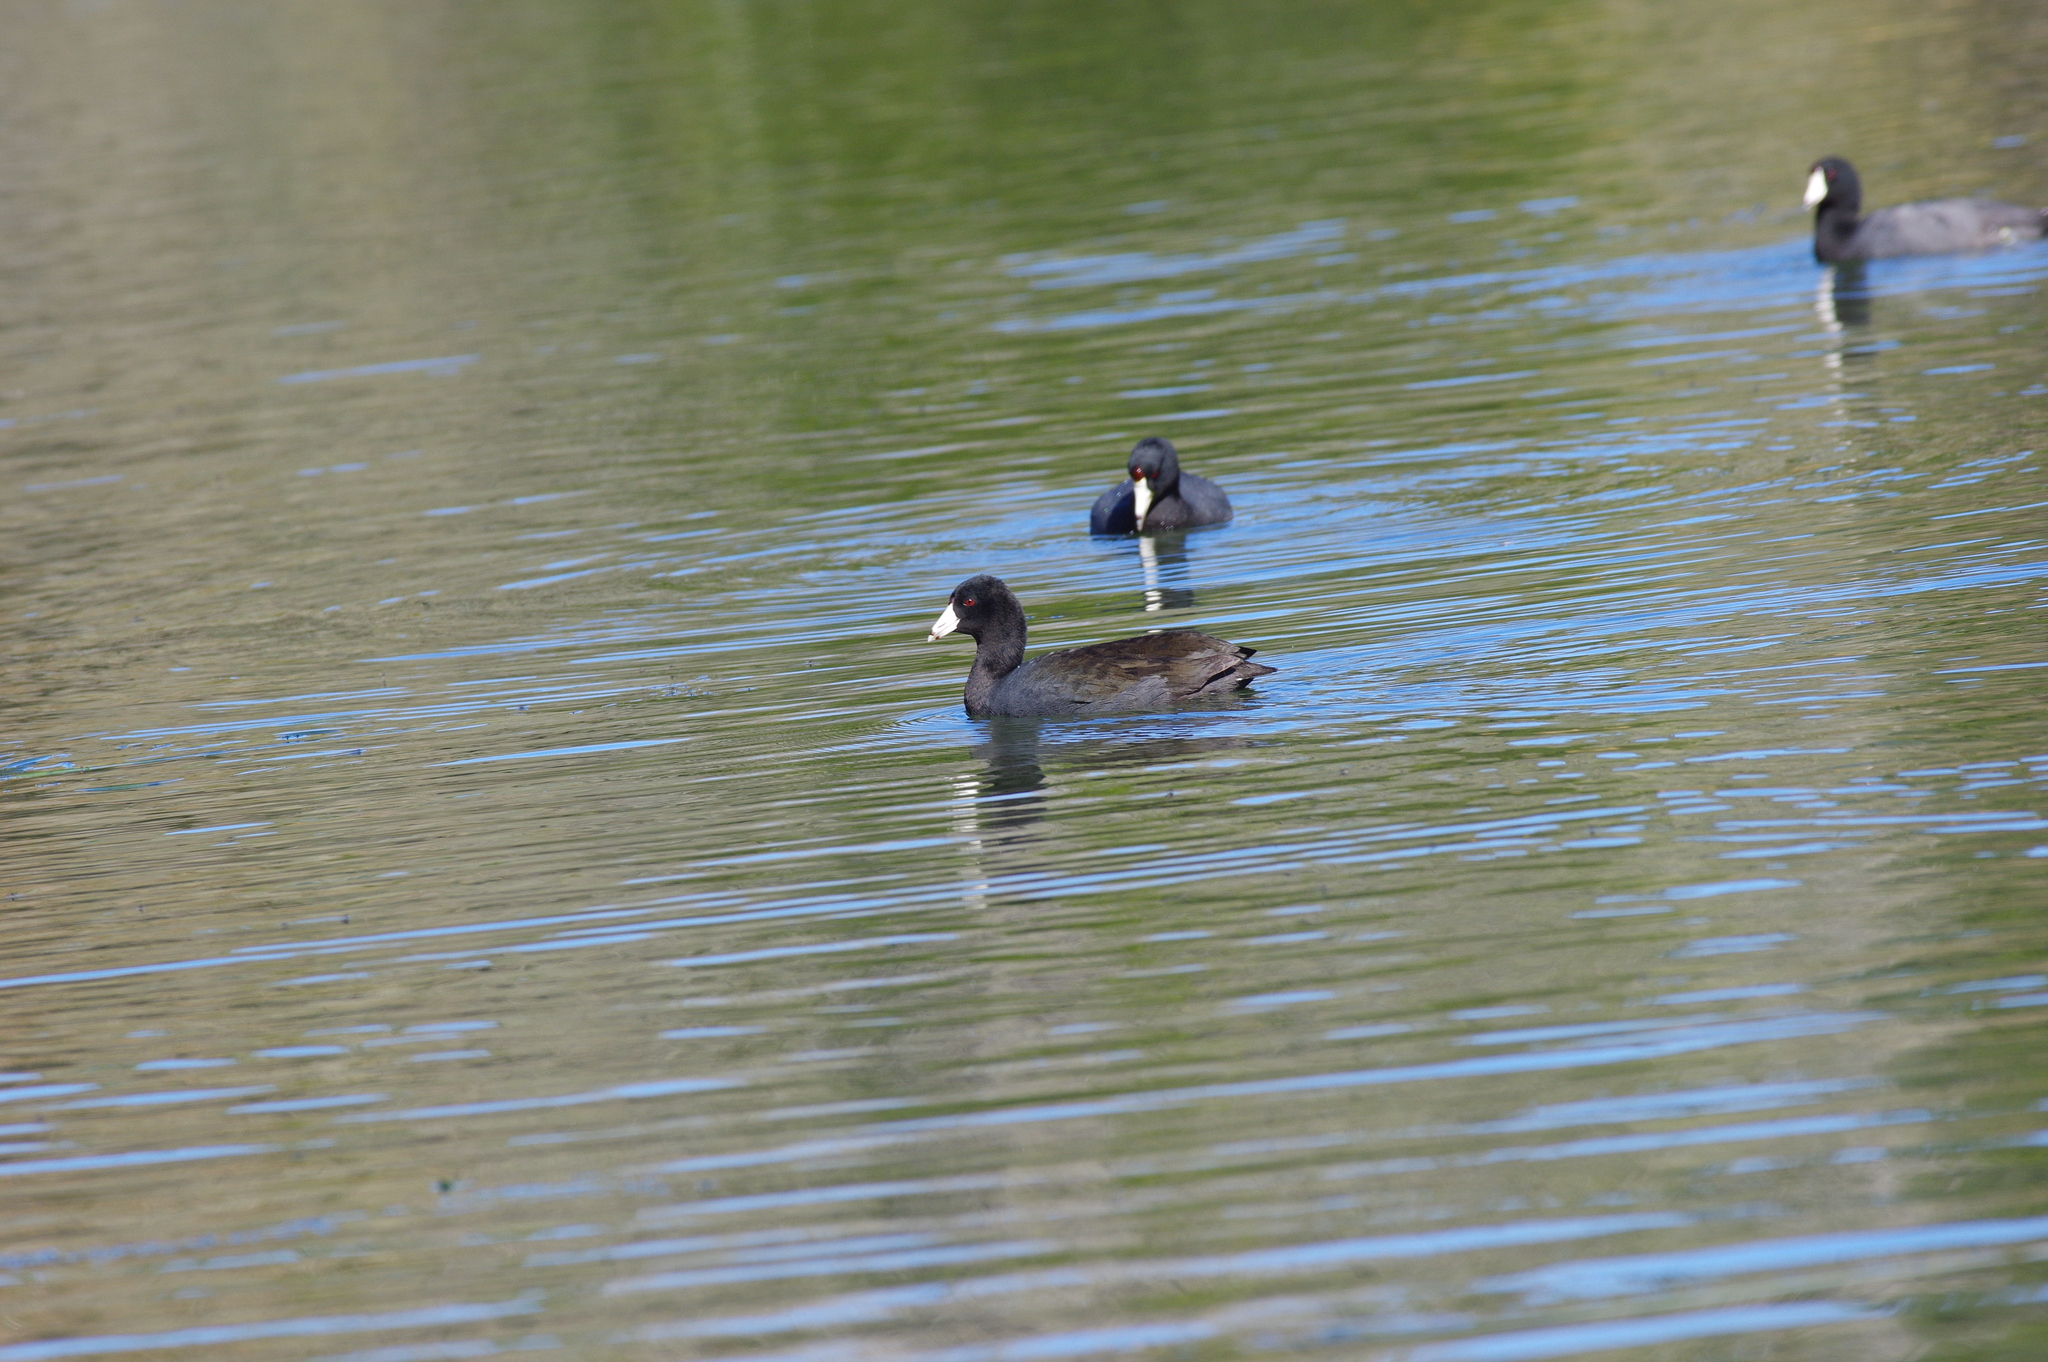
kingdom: Animalia
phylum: Chordata
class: Aves
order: Gruiformes
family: Rallidae
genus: Fulica
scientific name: Fulica americana
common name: American coot
